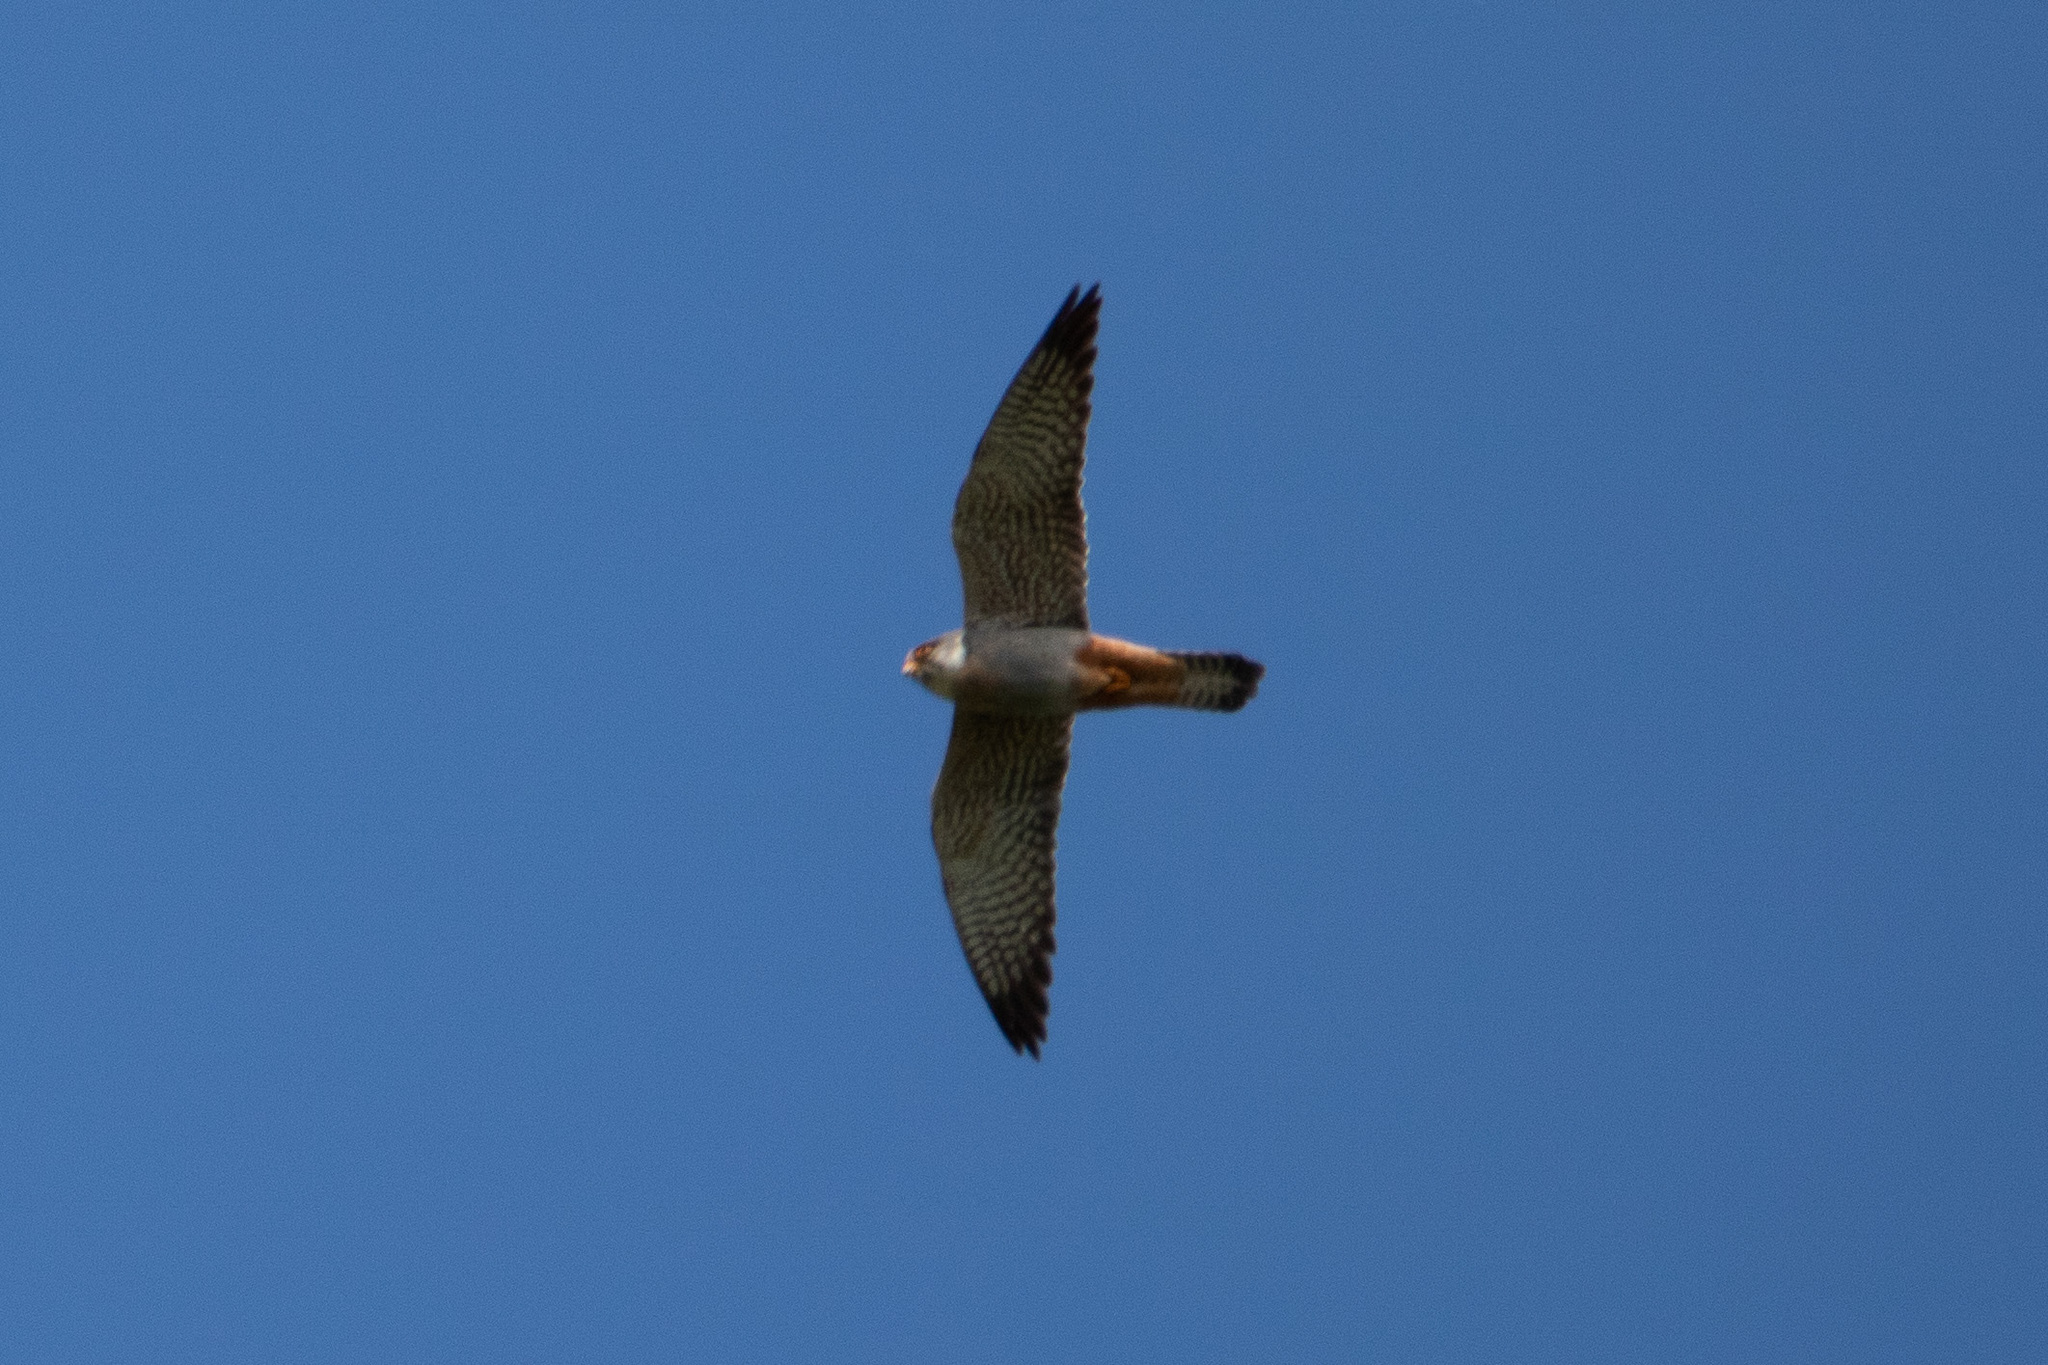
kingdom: Animalia
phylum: Chordata
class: Aves
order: Falconiformes
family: Falconidae
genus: Falco
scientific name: Falco vespertinus
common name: Red-footed falcon
